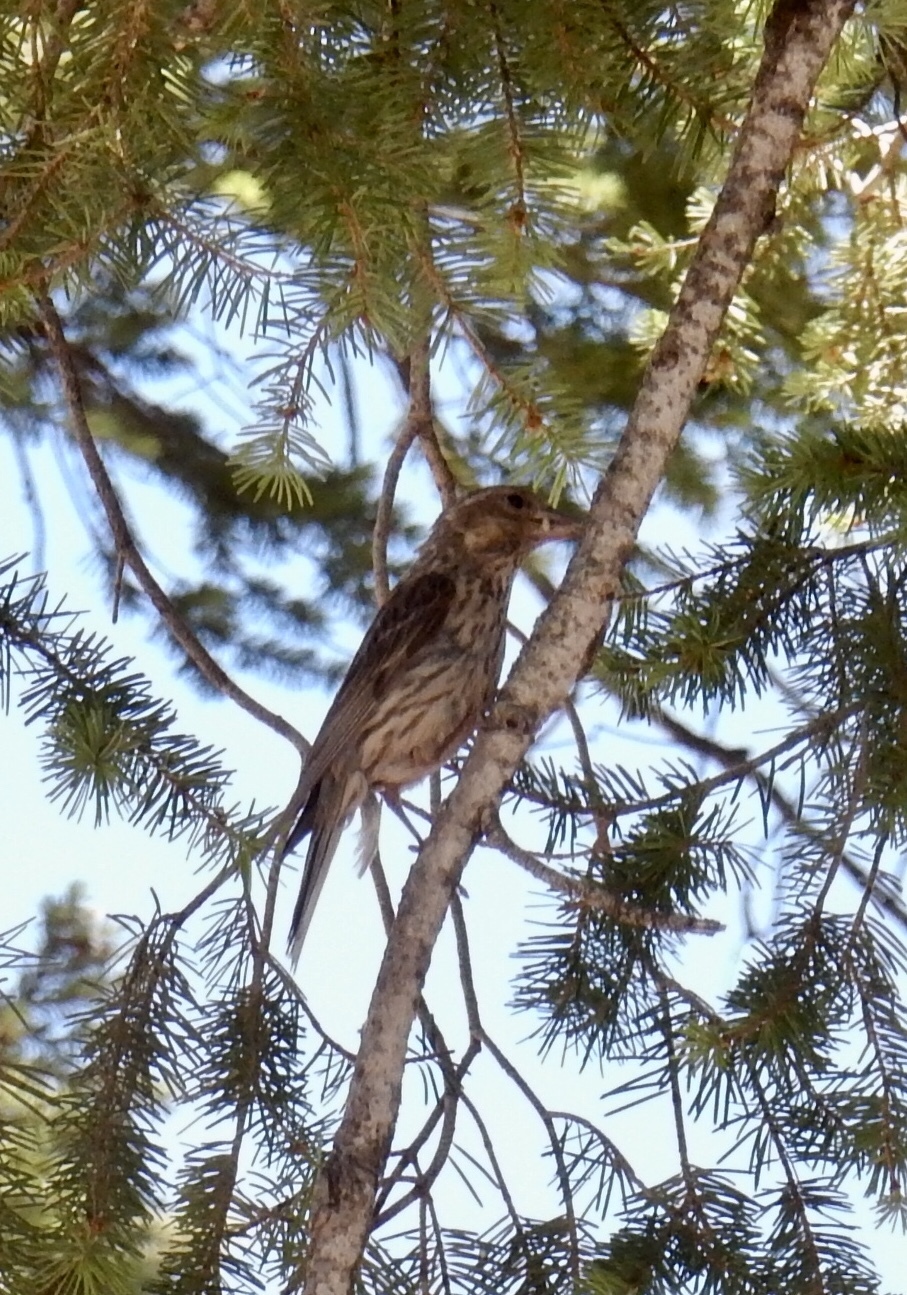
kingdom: Animalia
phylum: Chordata
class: Aves
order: Passeriformes
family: Fringillidae
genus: Haemorhous
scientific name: Haemorhous cassinii
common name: Cassin's finch
